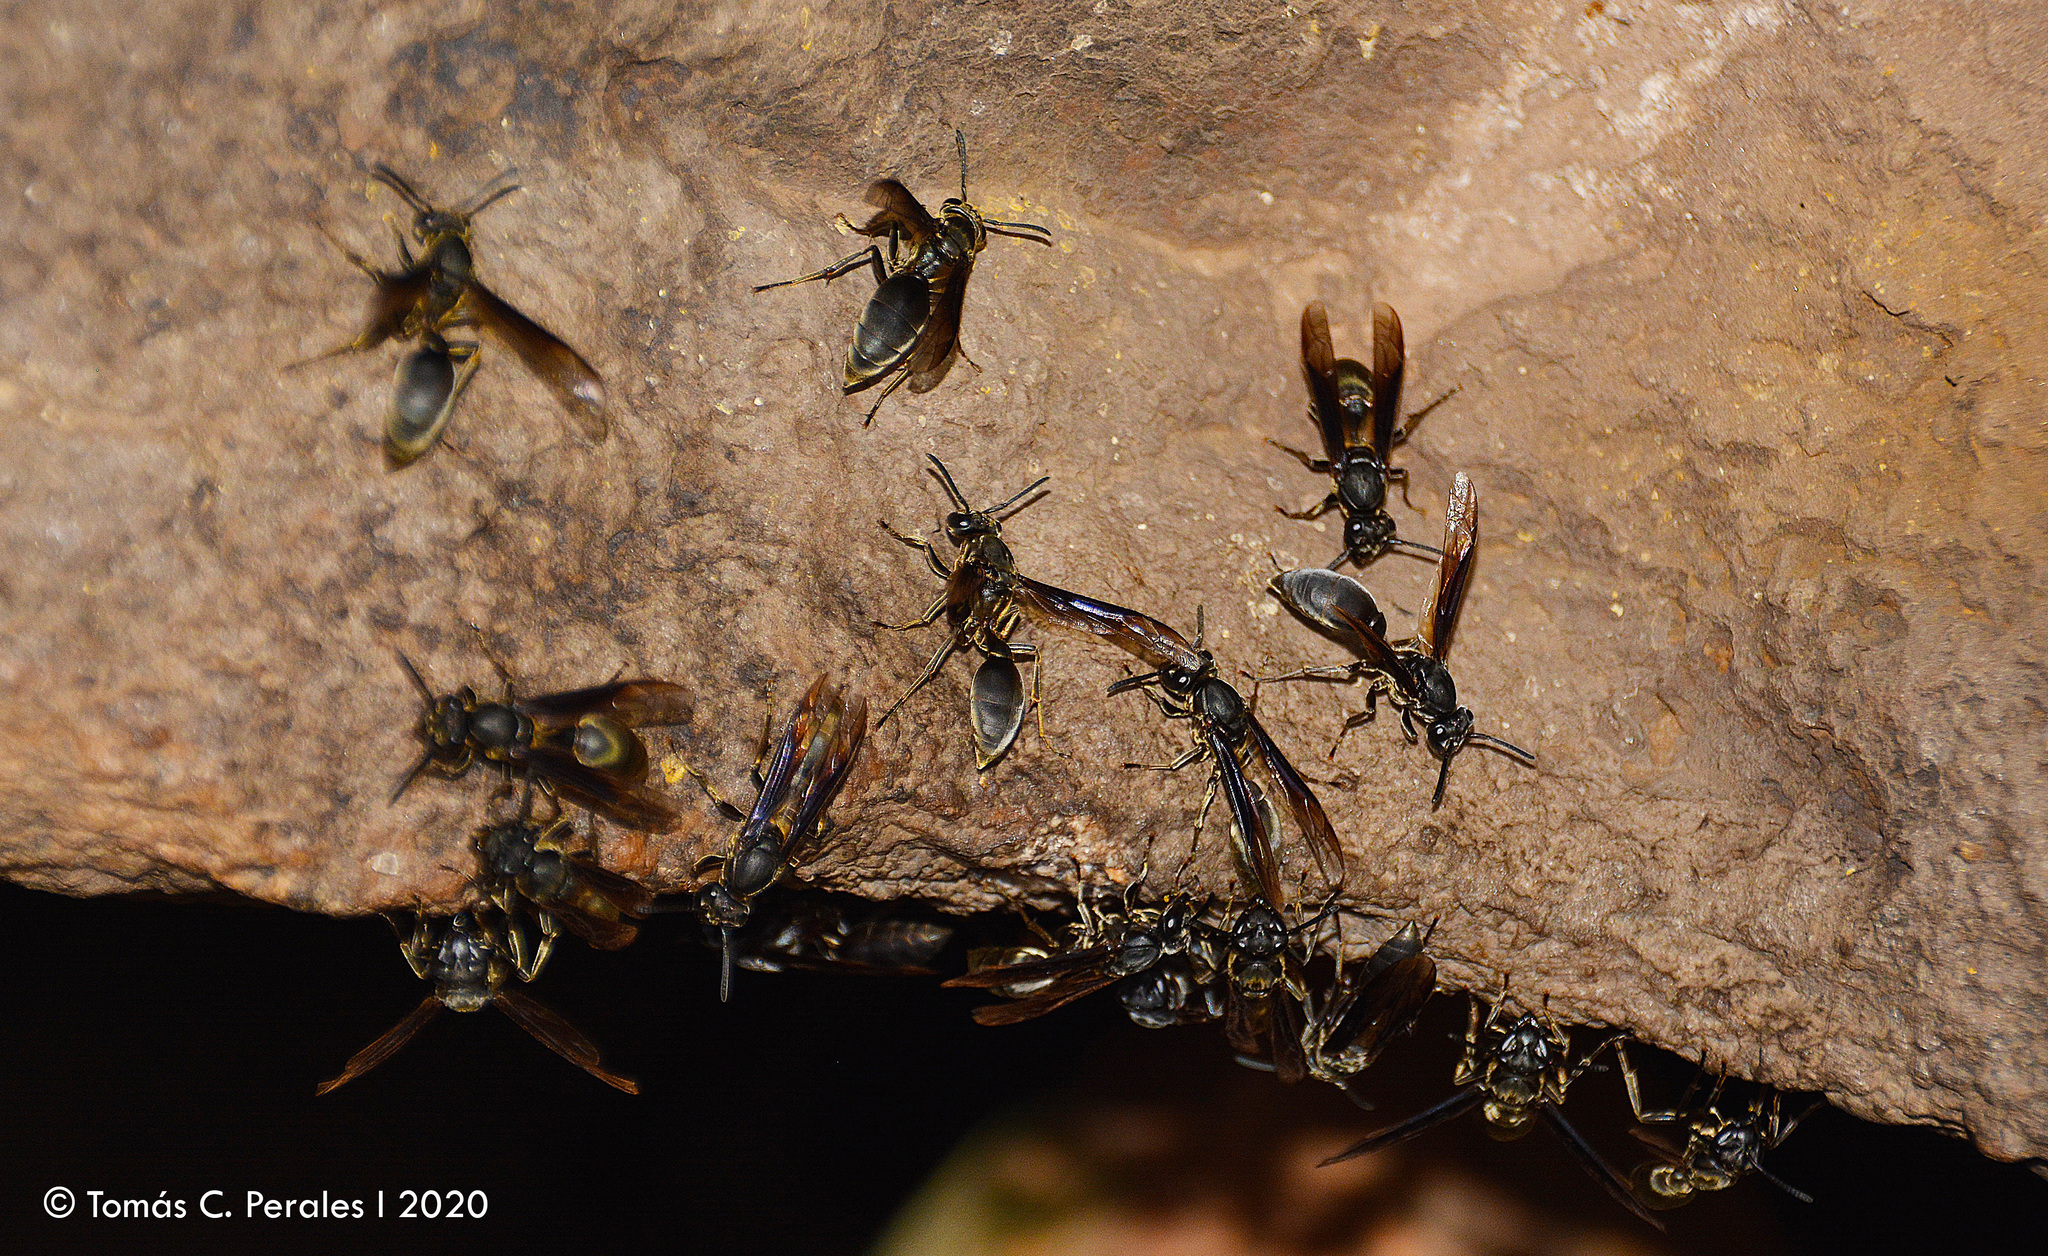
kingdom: Animalia
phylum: Arthropoda
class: Insecta
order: Hymenoptera
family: Eumenidae
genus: Polybia
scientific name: Polybia ignobilis
